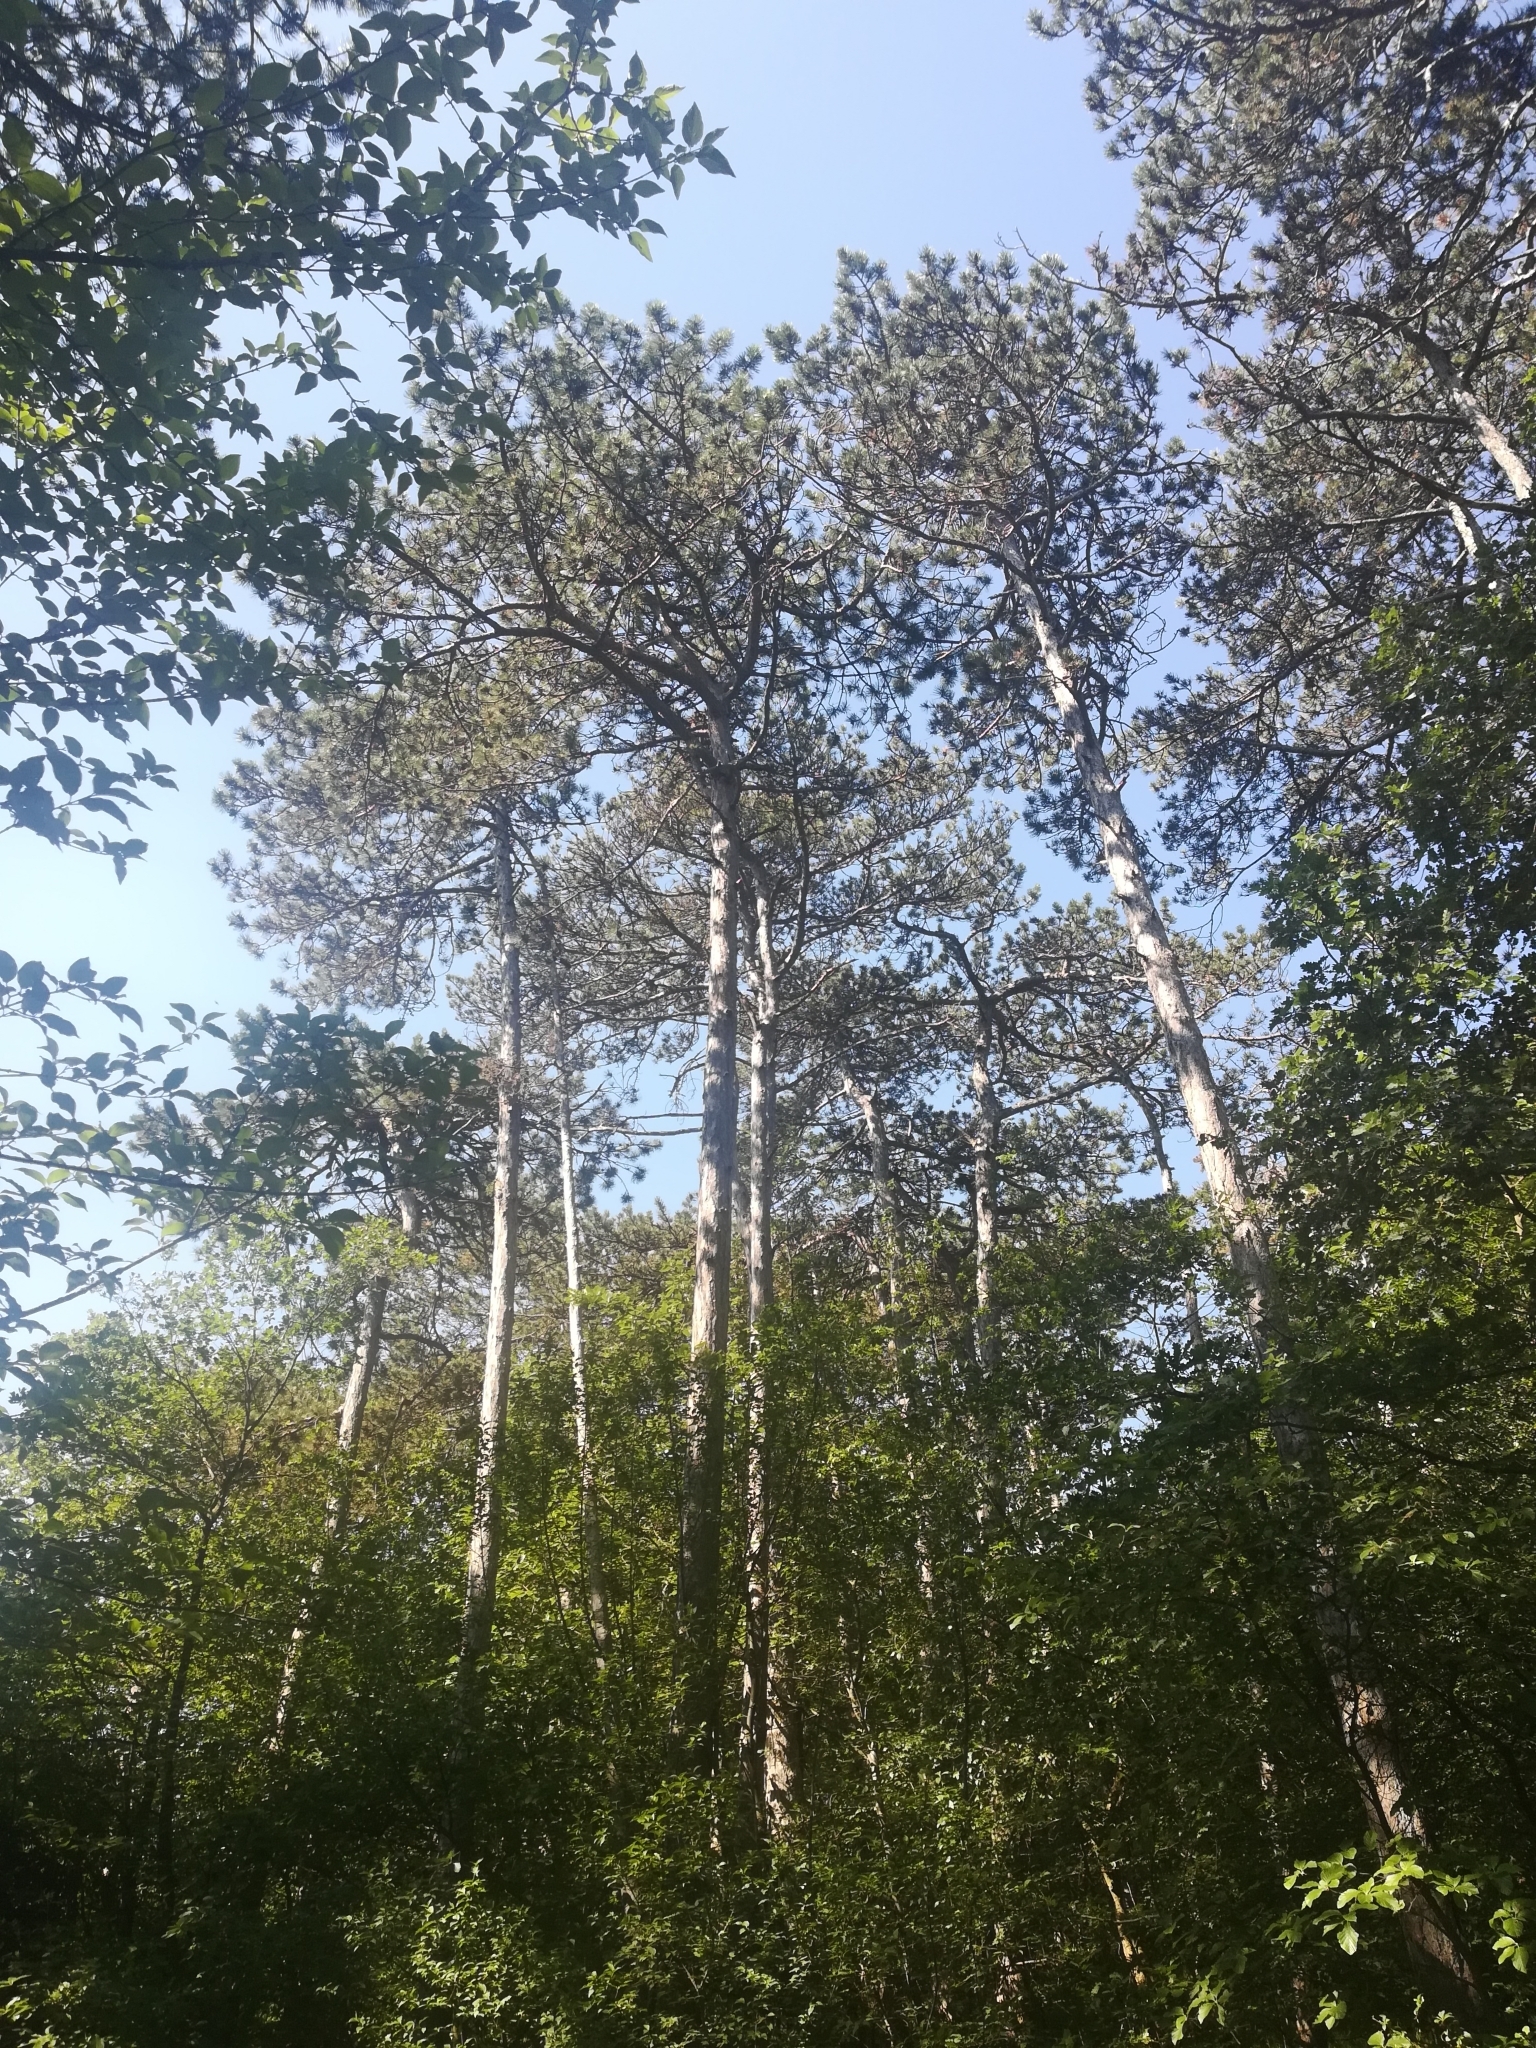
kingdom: Plantae
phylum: Tracheophyta
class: Pinopsida
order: Pinales
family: Pinaceae
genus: Pinus
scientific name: Pinus nigra
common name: Austrian pine
